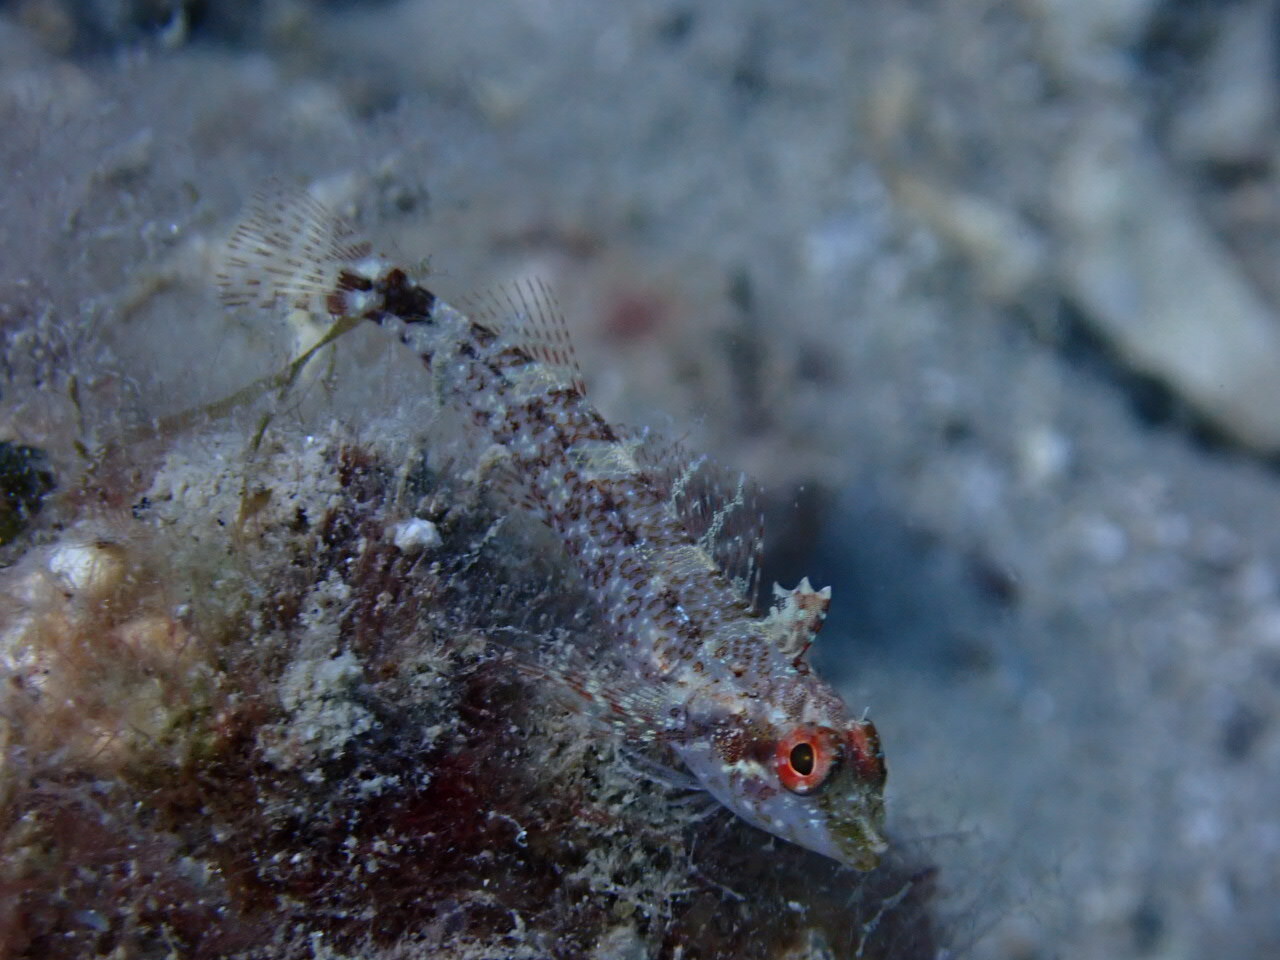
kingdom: Animalia
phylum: Chordata
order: Perciformes
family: Tripterygiidae
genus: Tripterygion
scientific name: Tripterygion delaisi
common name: Black-face blenny
